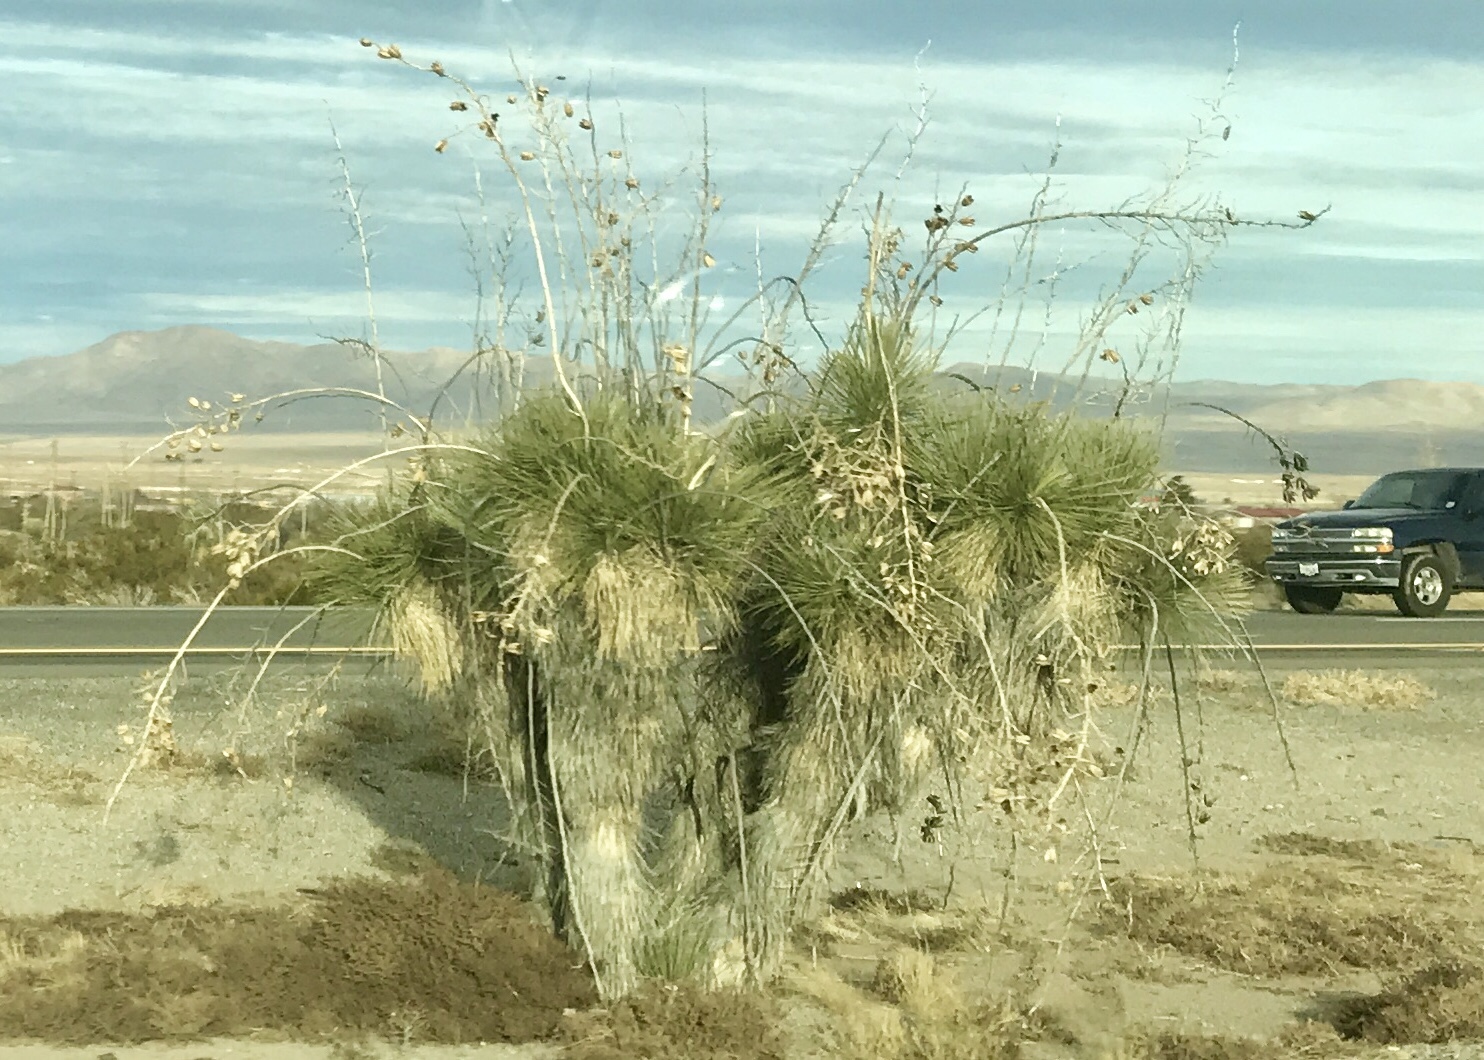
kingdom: Plantae
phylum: Tracheophyta
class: Liliopsida
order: Asparagales
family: Asparagaceae
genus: Yucca
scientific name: Yucca elata
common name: Palmella
